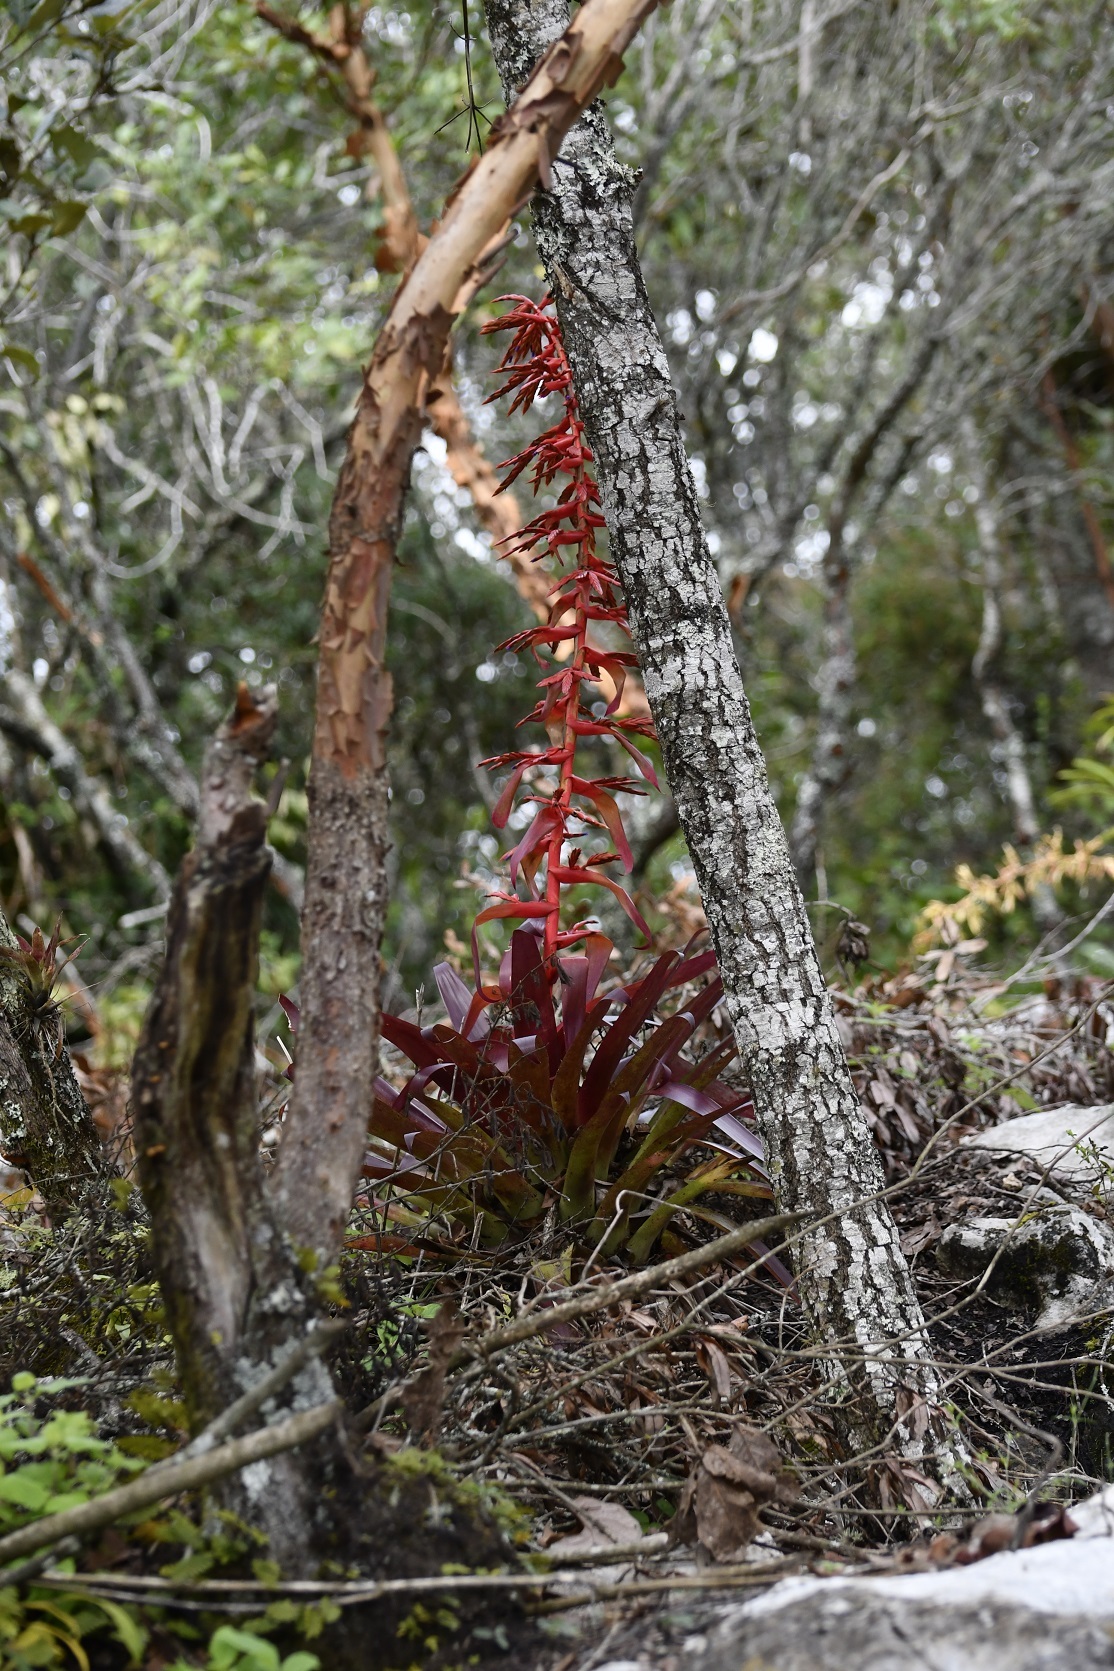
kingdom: Plantae
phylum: Tracheophyta
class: Liliopsida
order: Poales
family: Bromeliaceae
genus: Tillandsia
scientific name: Tillandsia guatemalensis
